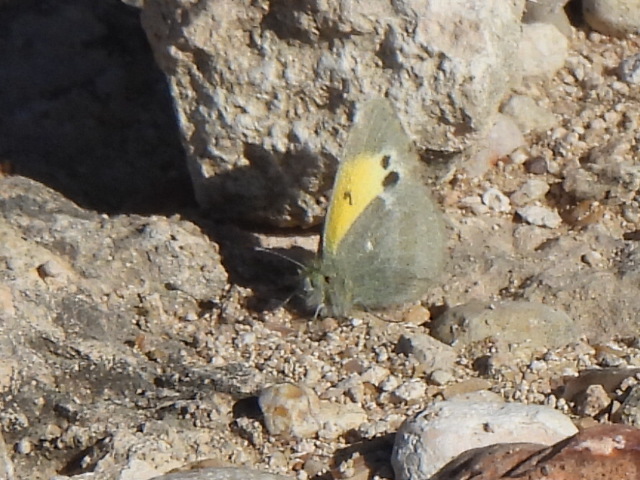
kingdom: Animalia
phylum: Arthropoda
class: Insecta
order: Lepidoptera
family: Pieridae
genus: Nathalis
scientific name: Nathalis iole
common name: Dainty sulphur
